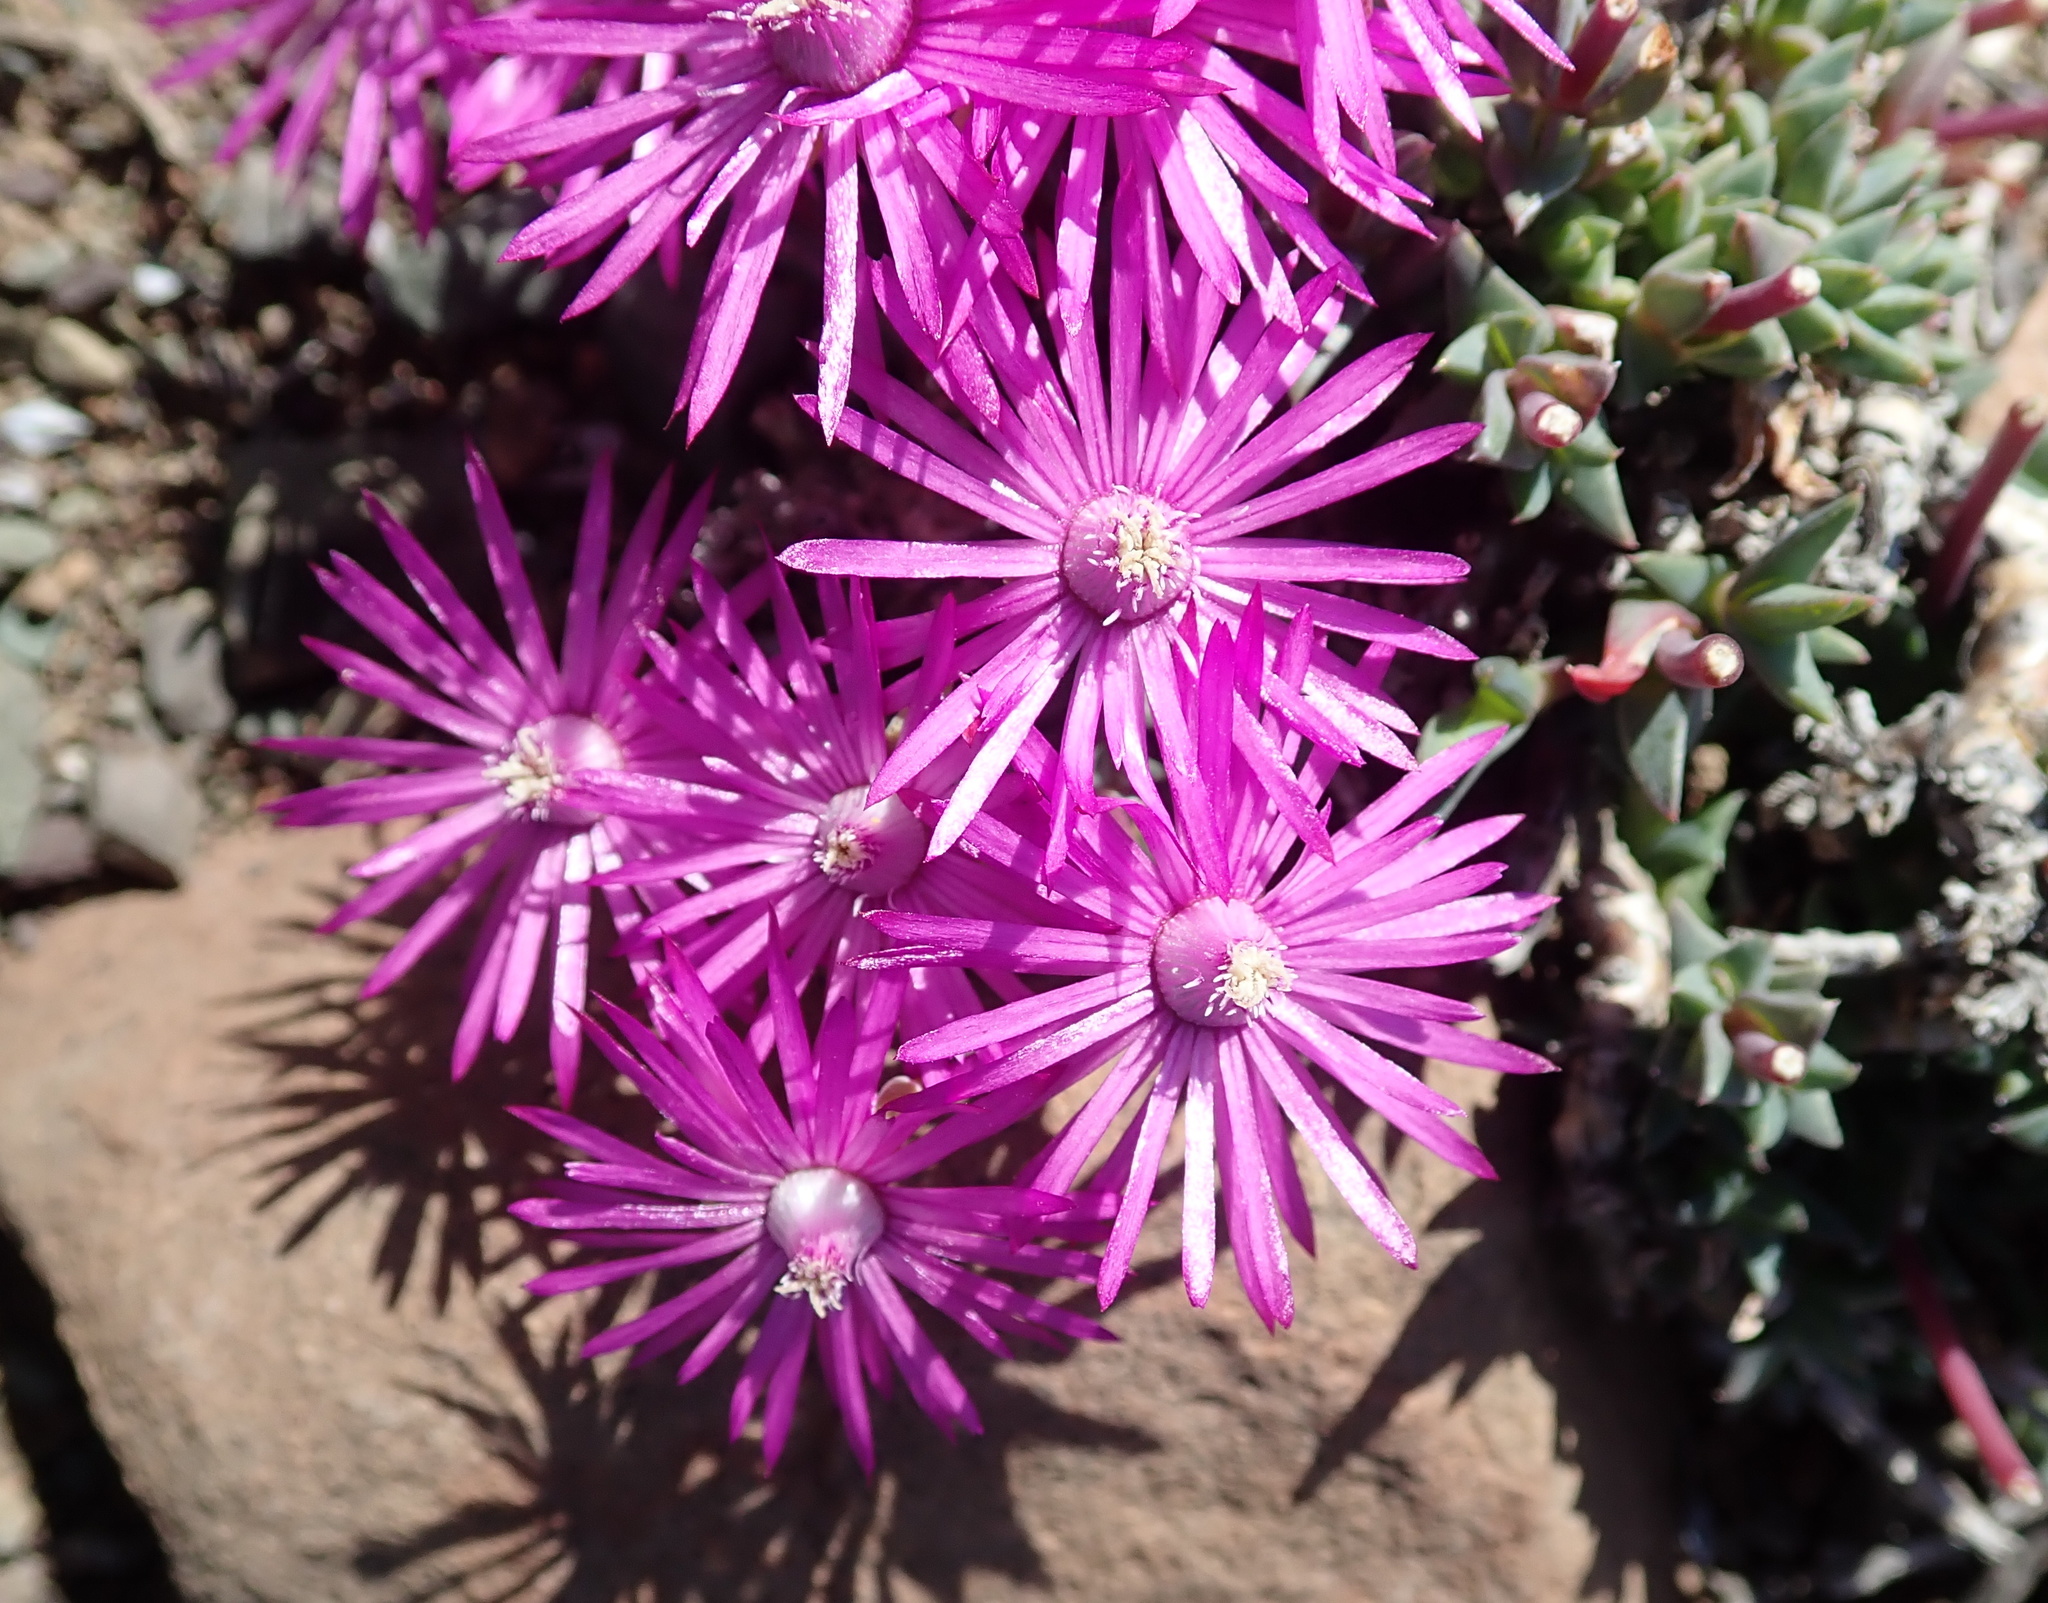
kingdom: Plantae
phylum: Tracheophyta
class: Magnoliopsida
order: Caryophyllales
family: Aizoaceae
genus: Antimima
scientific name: Antimima mucronata
